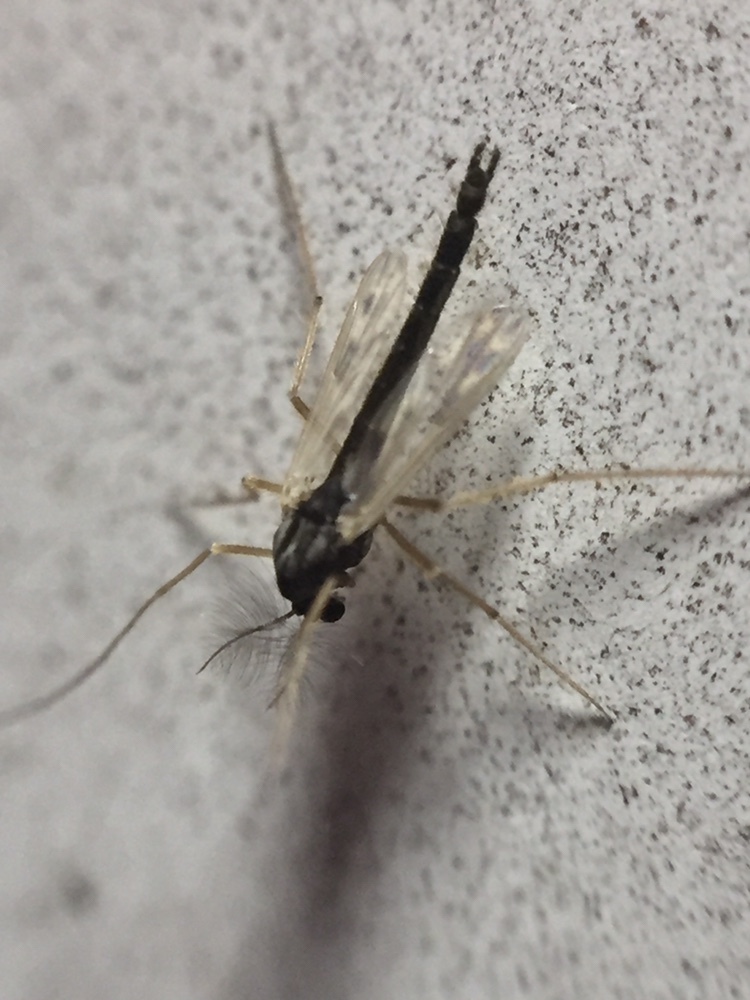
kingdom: Animalia
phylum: Arthropoda
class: Insecta
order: Diptera
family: Chironomidae
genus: Polypedilum
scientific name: Polypedilum pavidus
